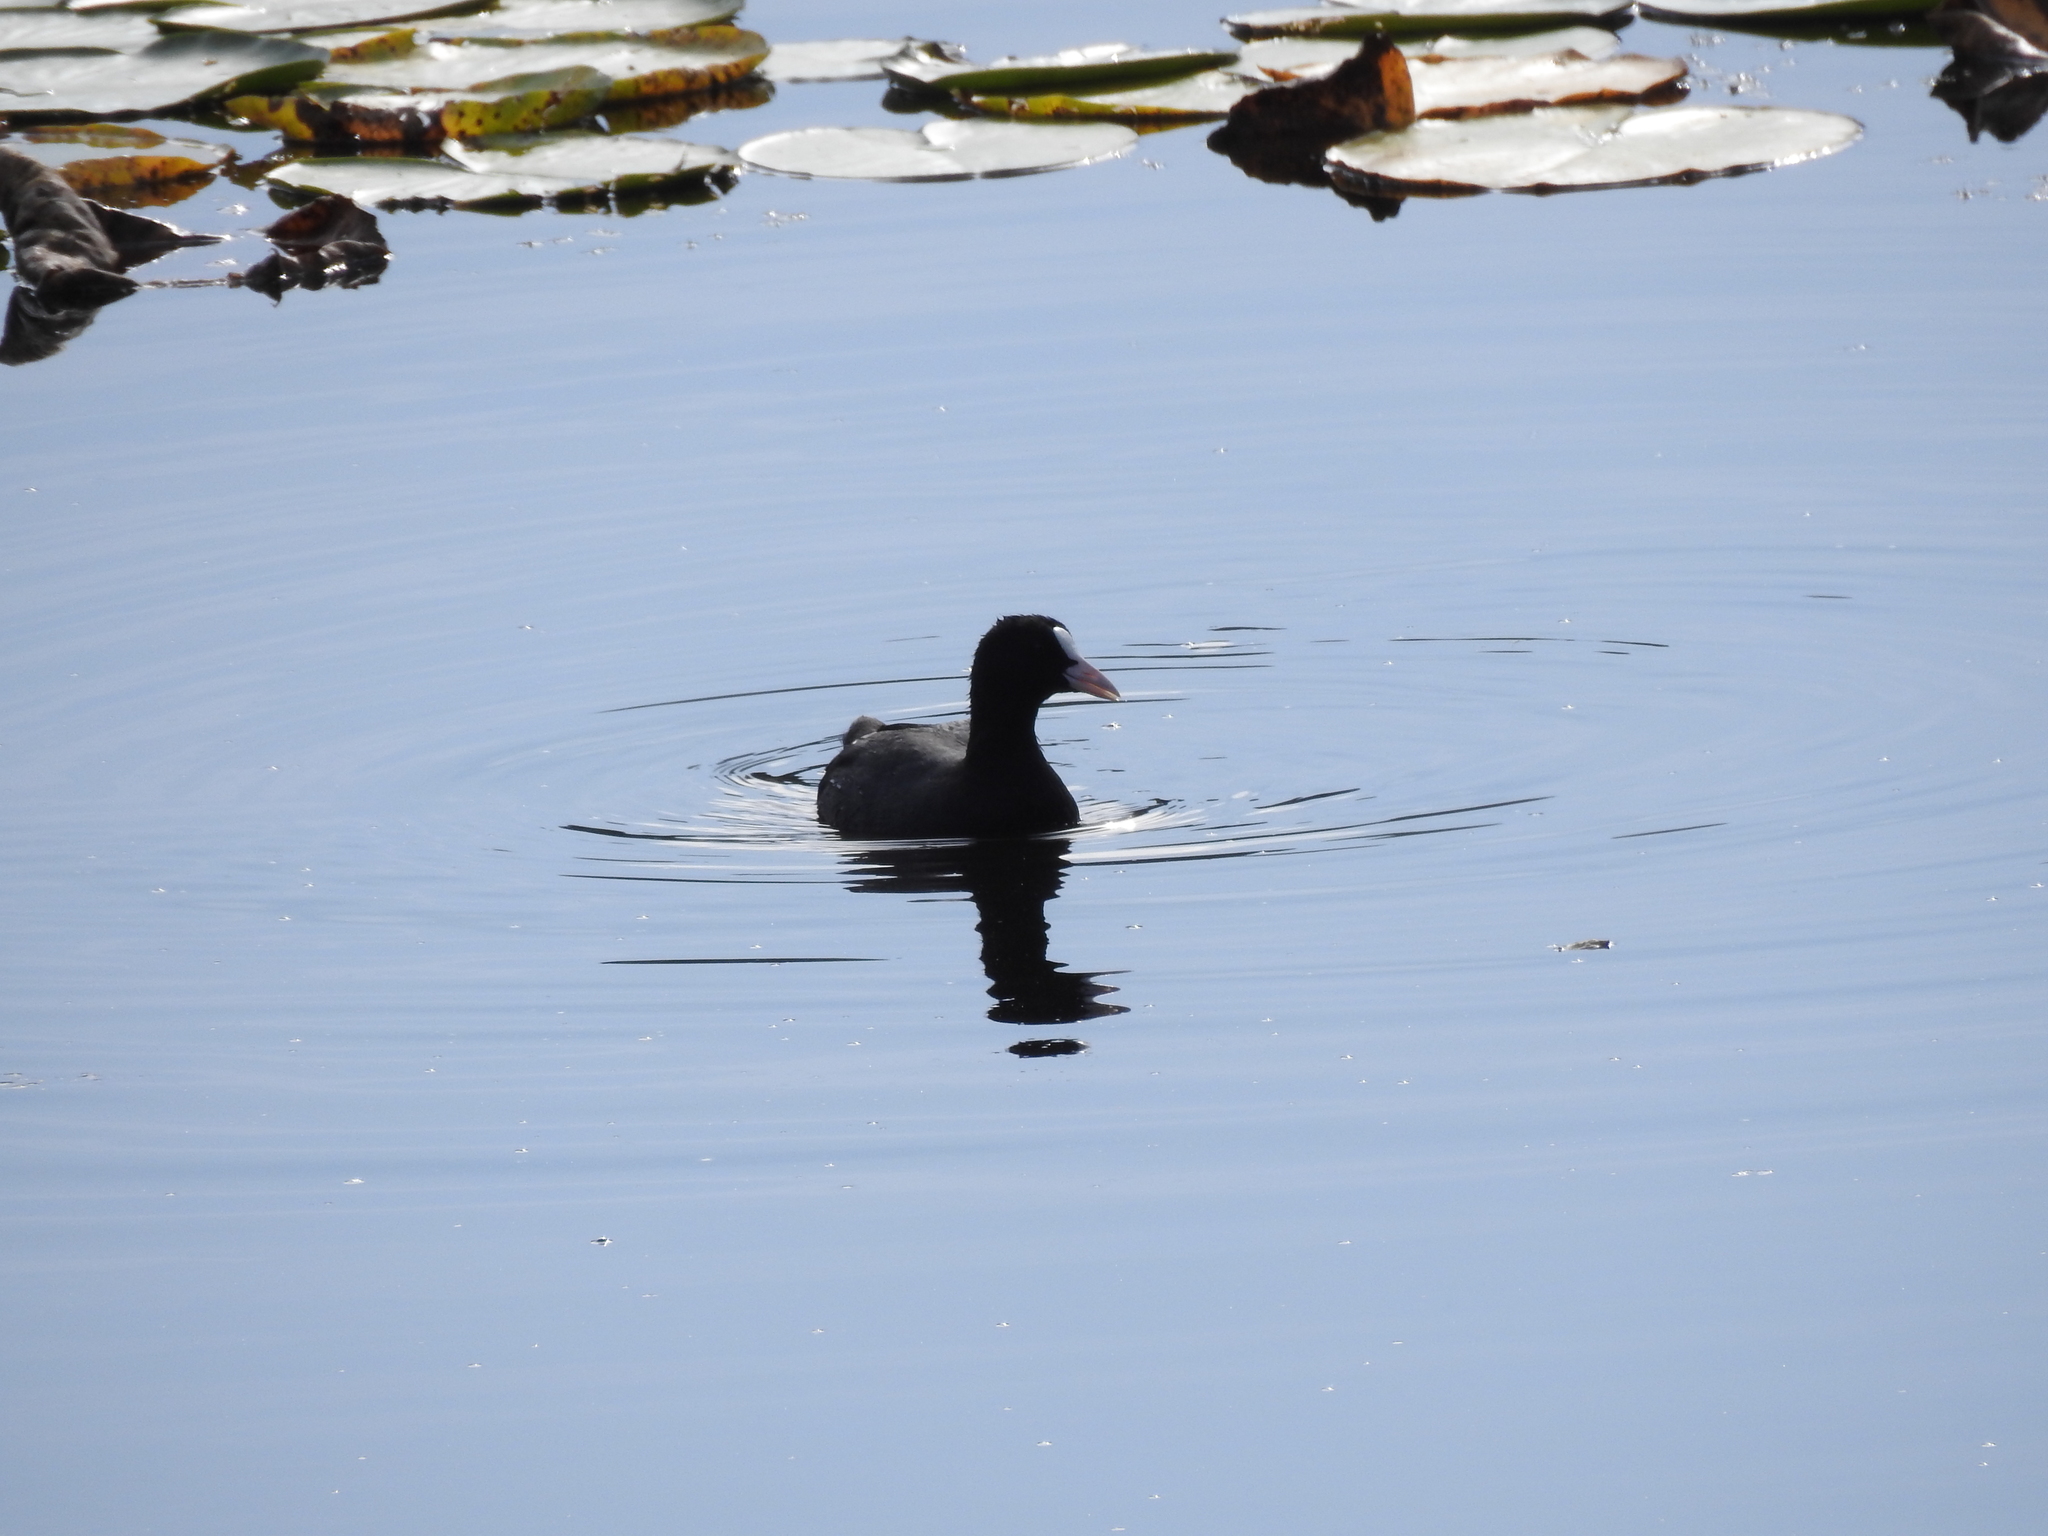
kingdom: Animalia
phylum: Chordata
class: Aves
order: Gruiformes
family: Rallidae
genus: Fulica
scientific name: Fulica atra
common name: Eurasian coot
